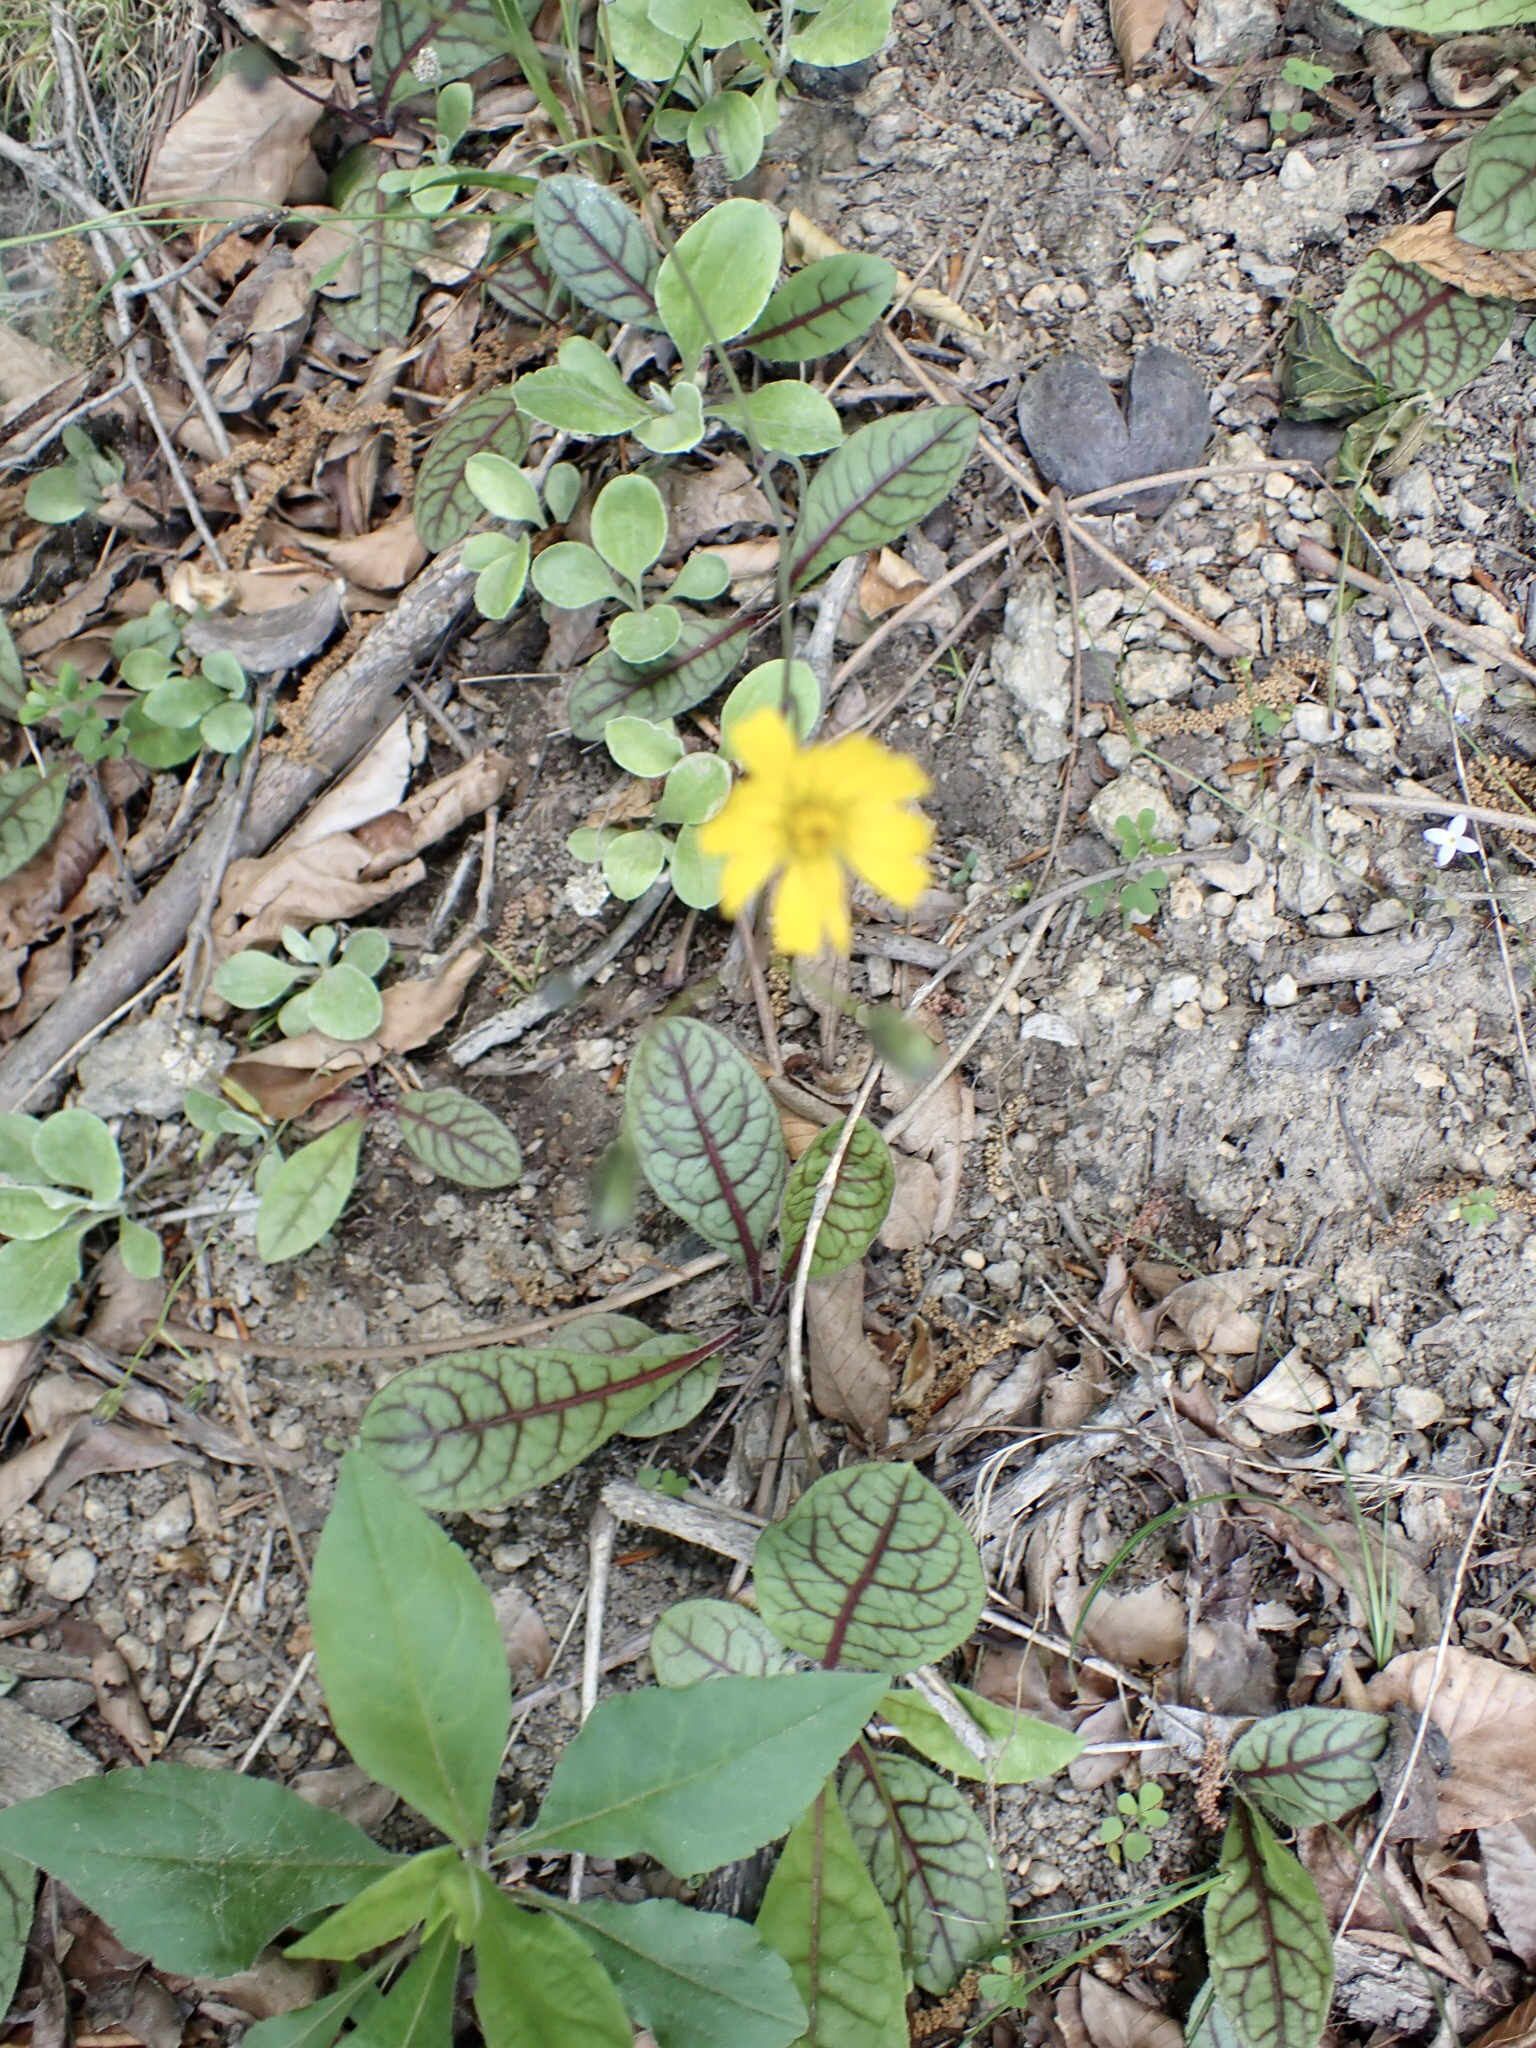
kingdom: Plantae
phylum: Tracheophyta
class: Magnoliopsida
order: Asterales
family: Asteraceae
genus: Hieracium
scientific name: Hieracium venosum
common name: Rattlesnake hawkweed
